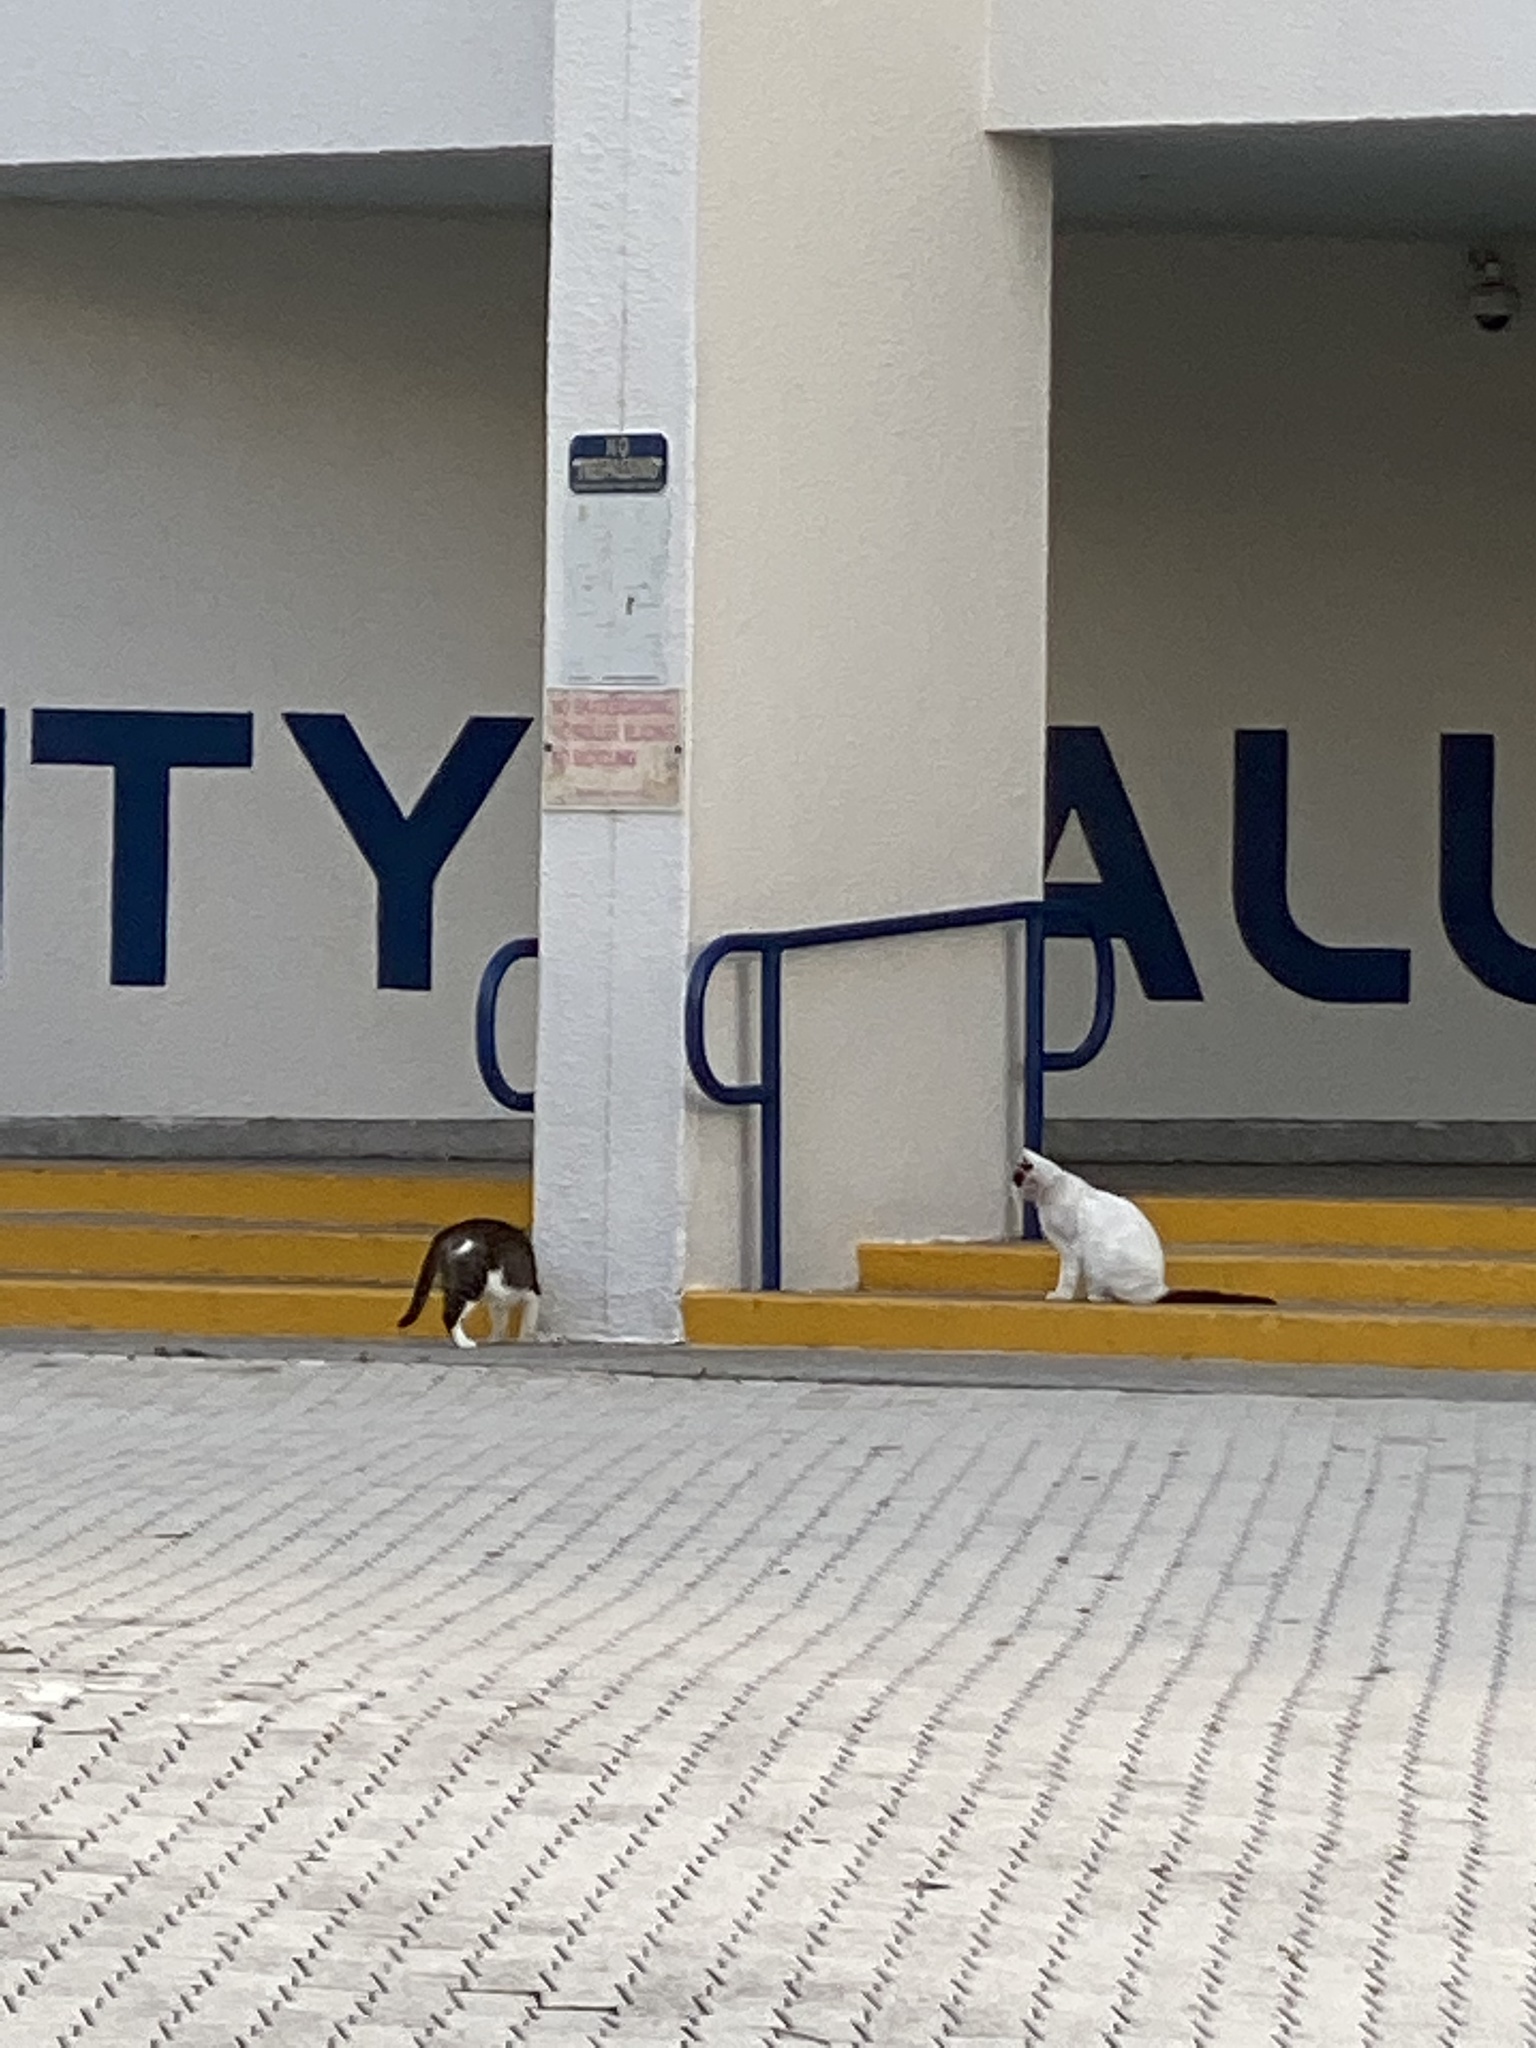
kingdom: Animalia
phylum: Chordata
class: Mammalia
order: Carnivora
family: Felidae
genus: Felis
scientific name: Felis catus
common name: Domestic cat
